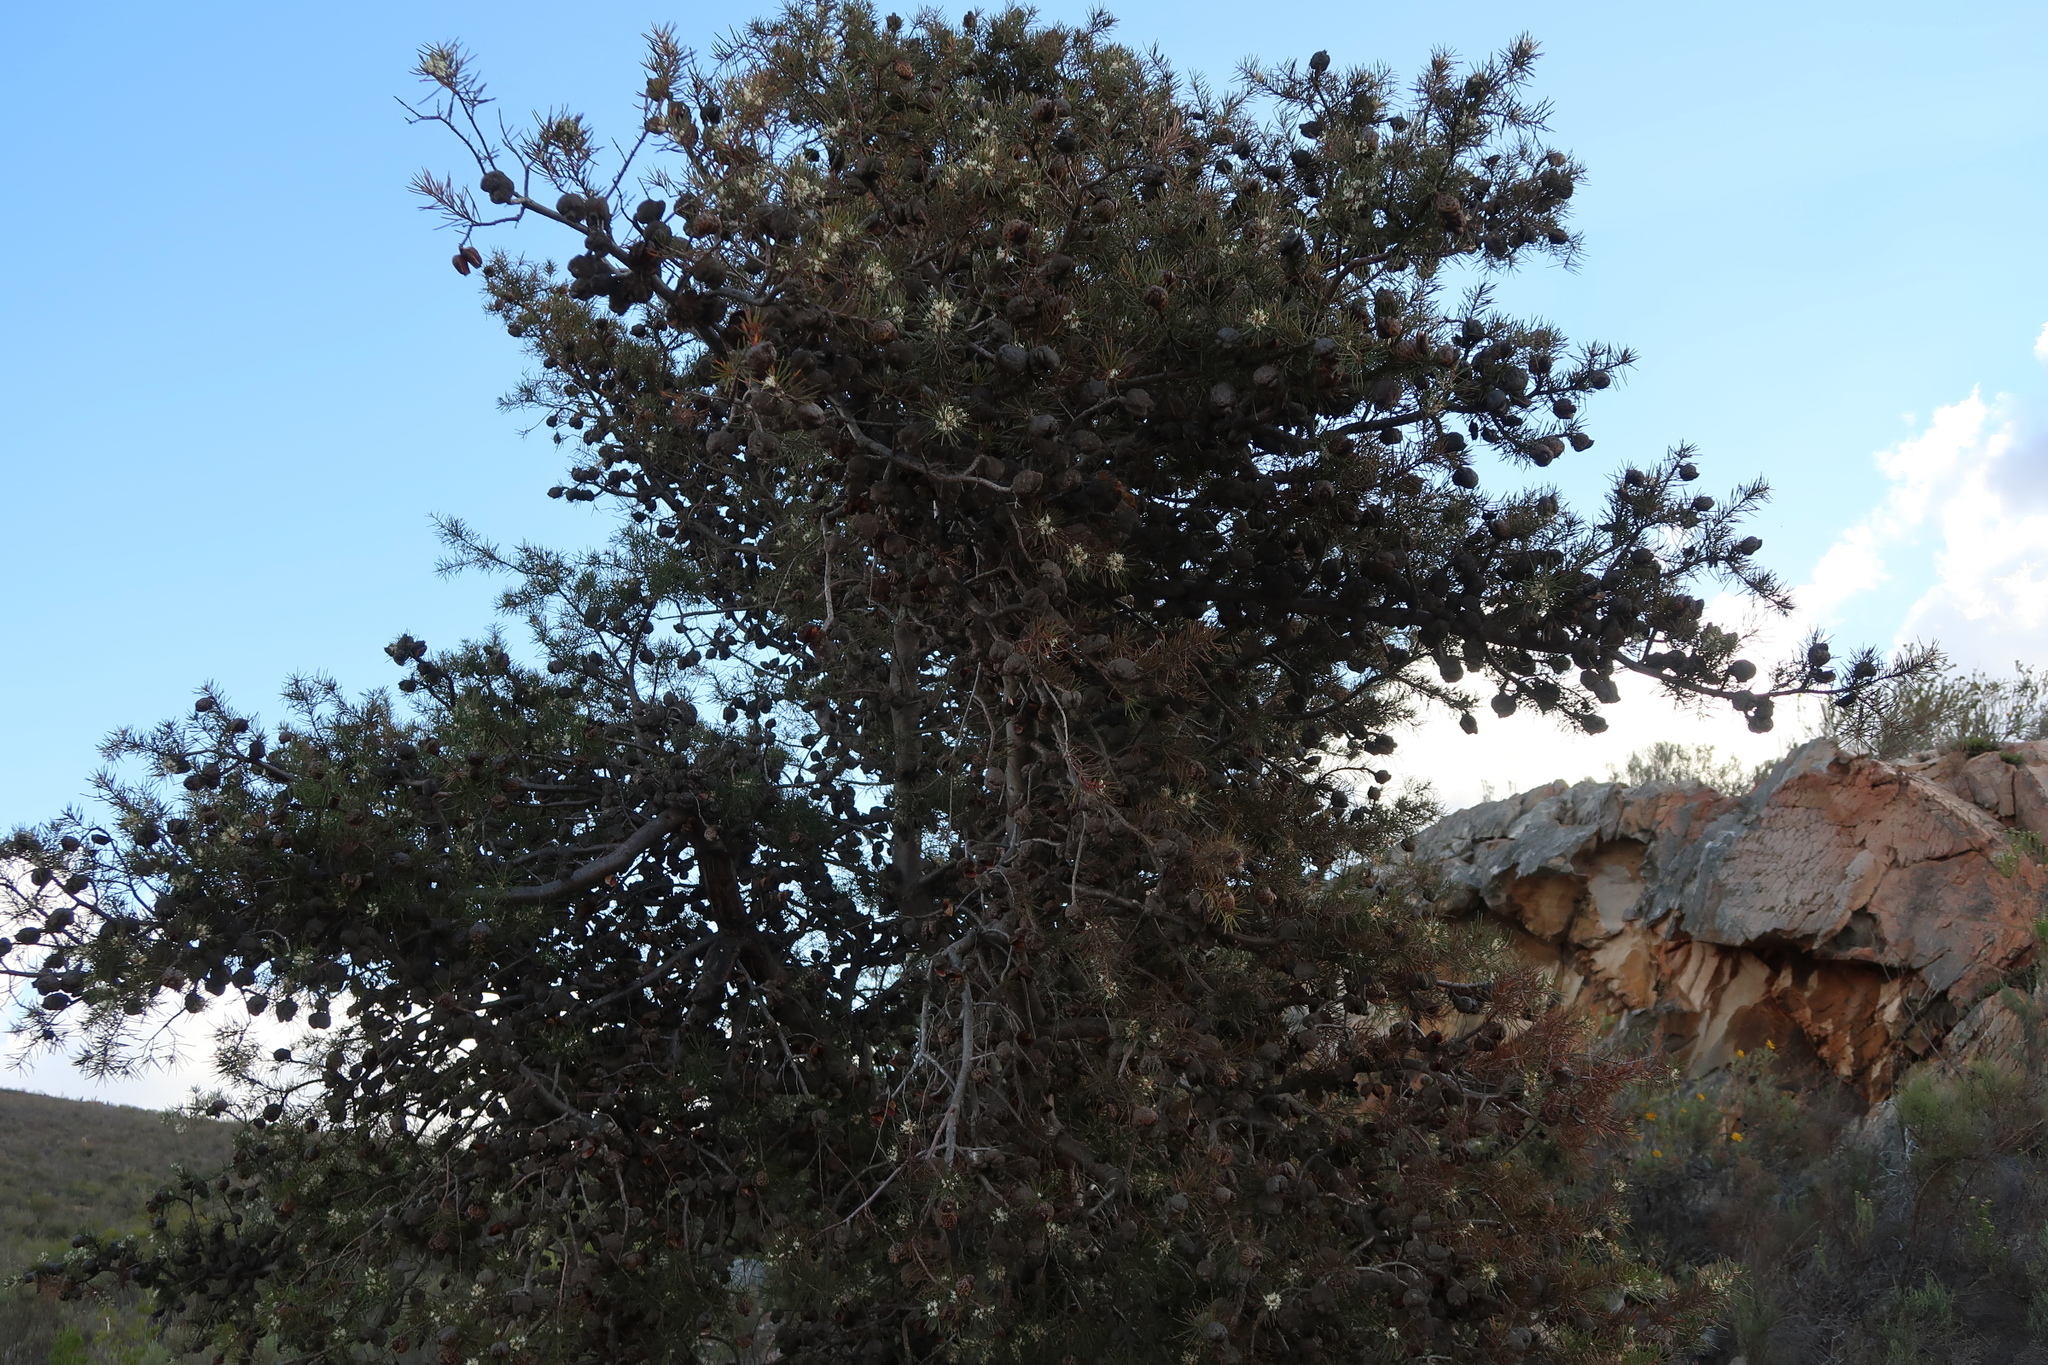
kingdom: Plantae
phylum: Tracheophyta
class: Magnoliopsida
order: Proteales
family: Proteaceae
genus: Hakea
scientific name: Hakea sericea
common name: Needle bush
